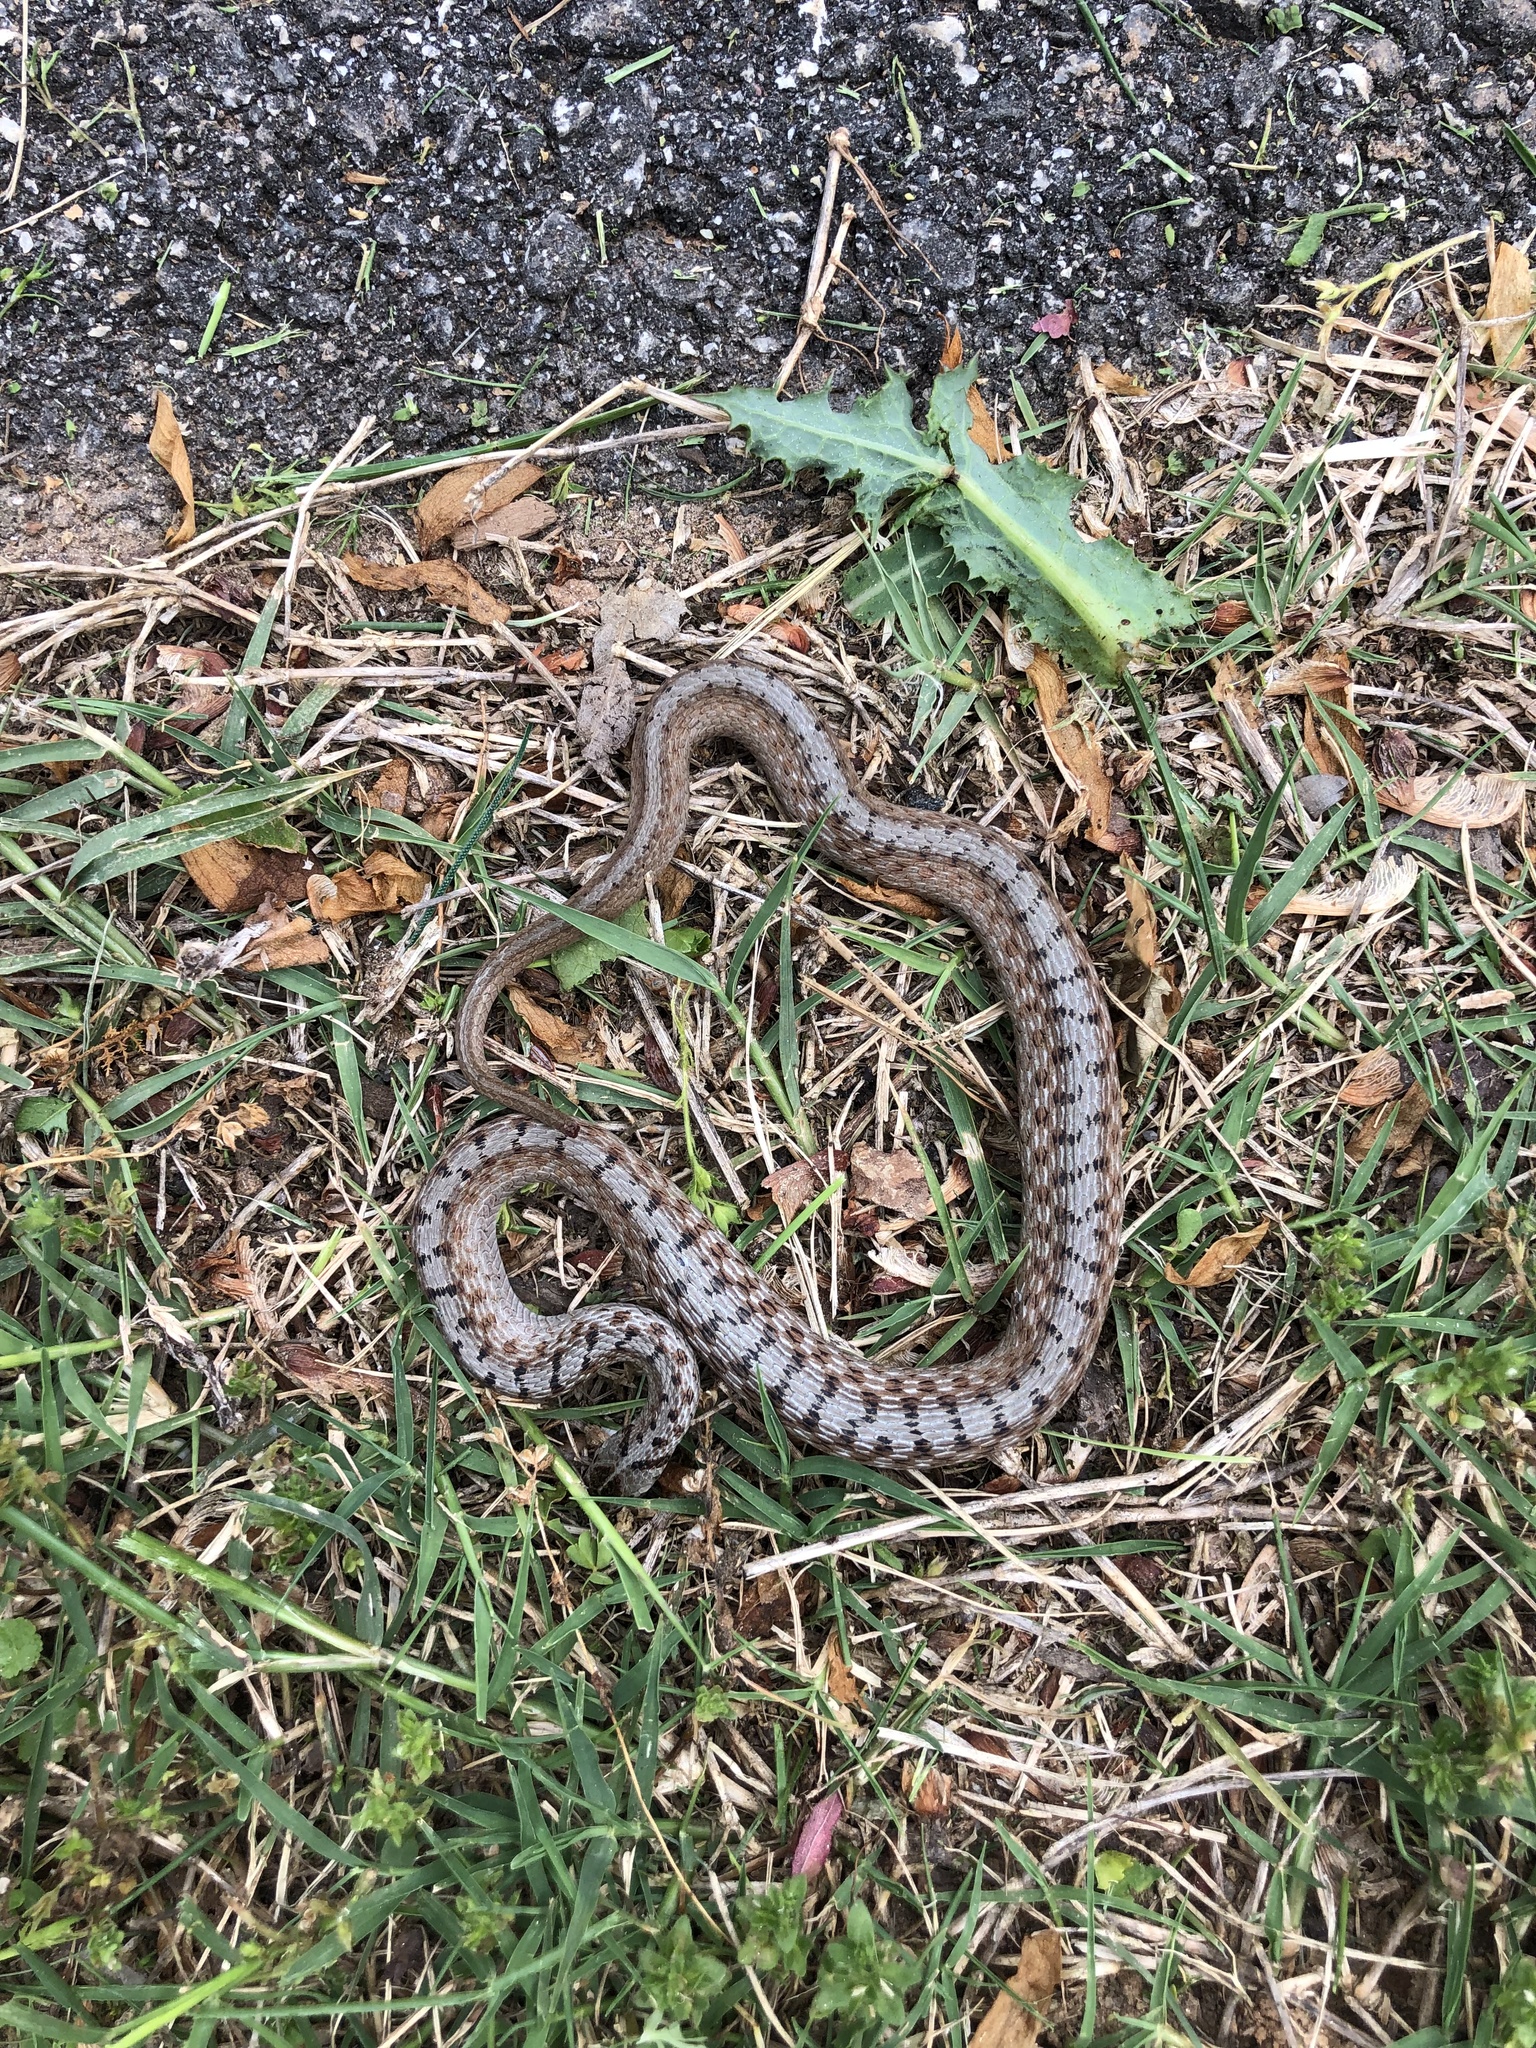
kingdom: Animalia
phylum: Chordata
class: Squamata
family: Colubridae
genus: Storeria
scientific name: Storeria dekayi
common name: (dekay’s) brown snake
